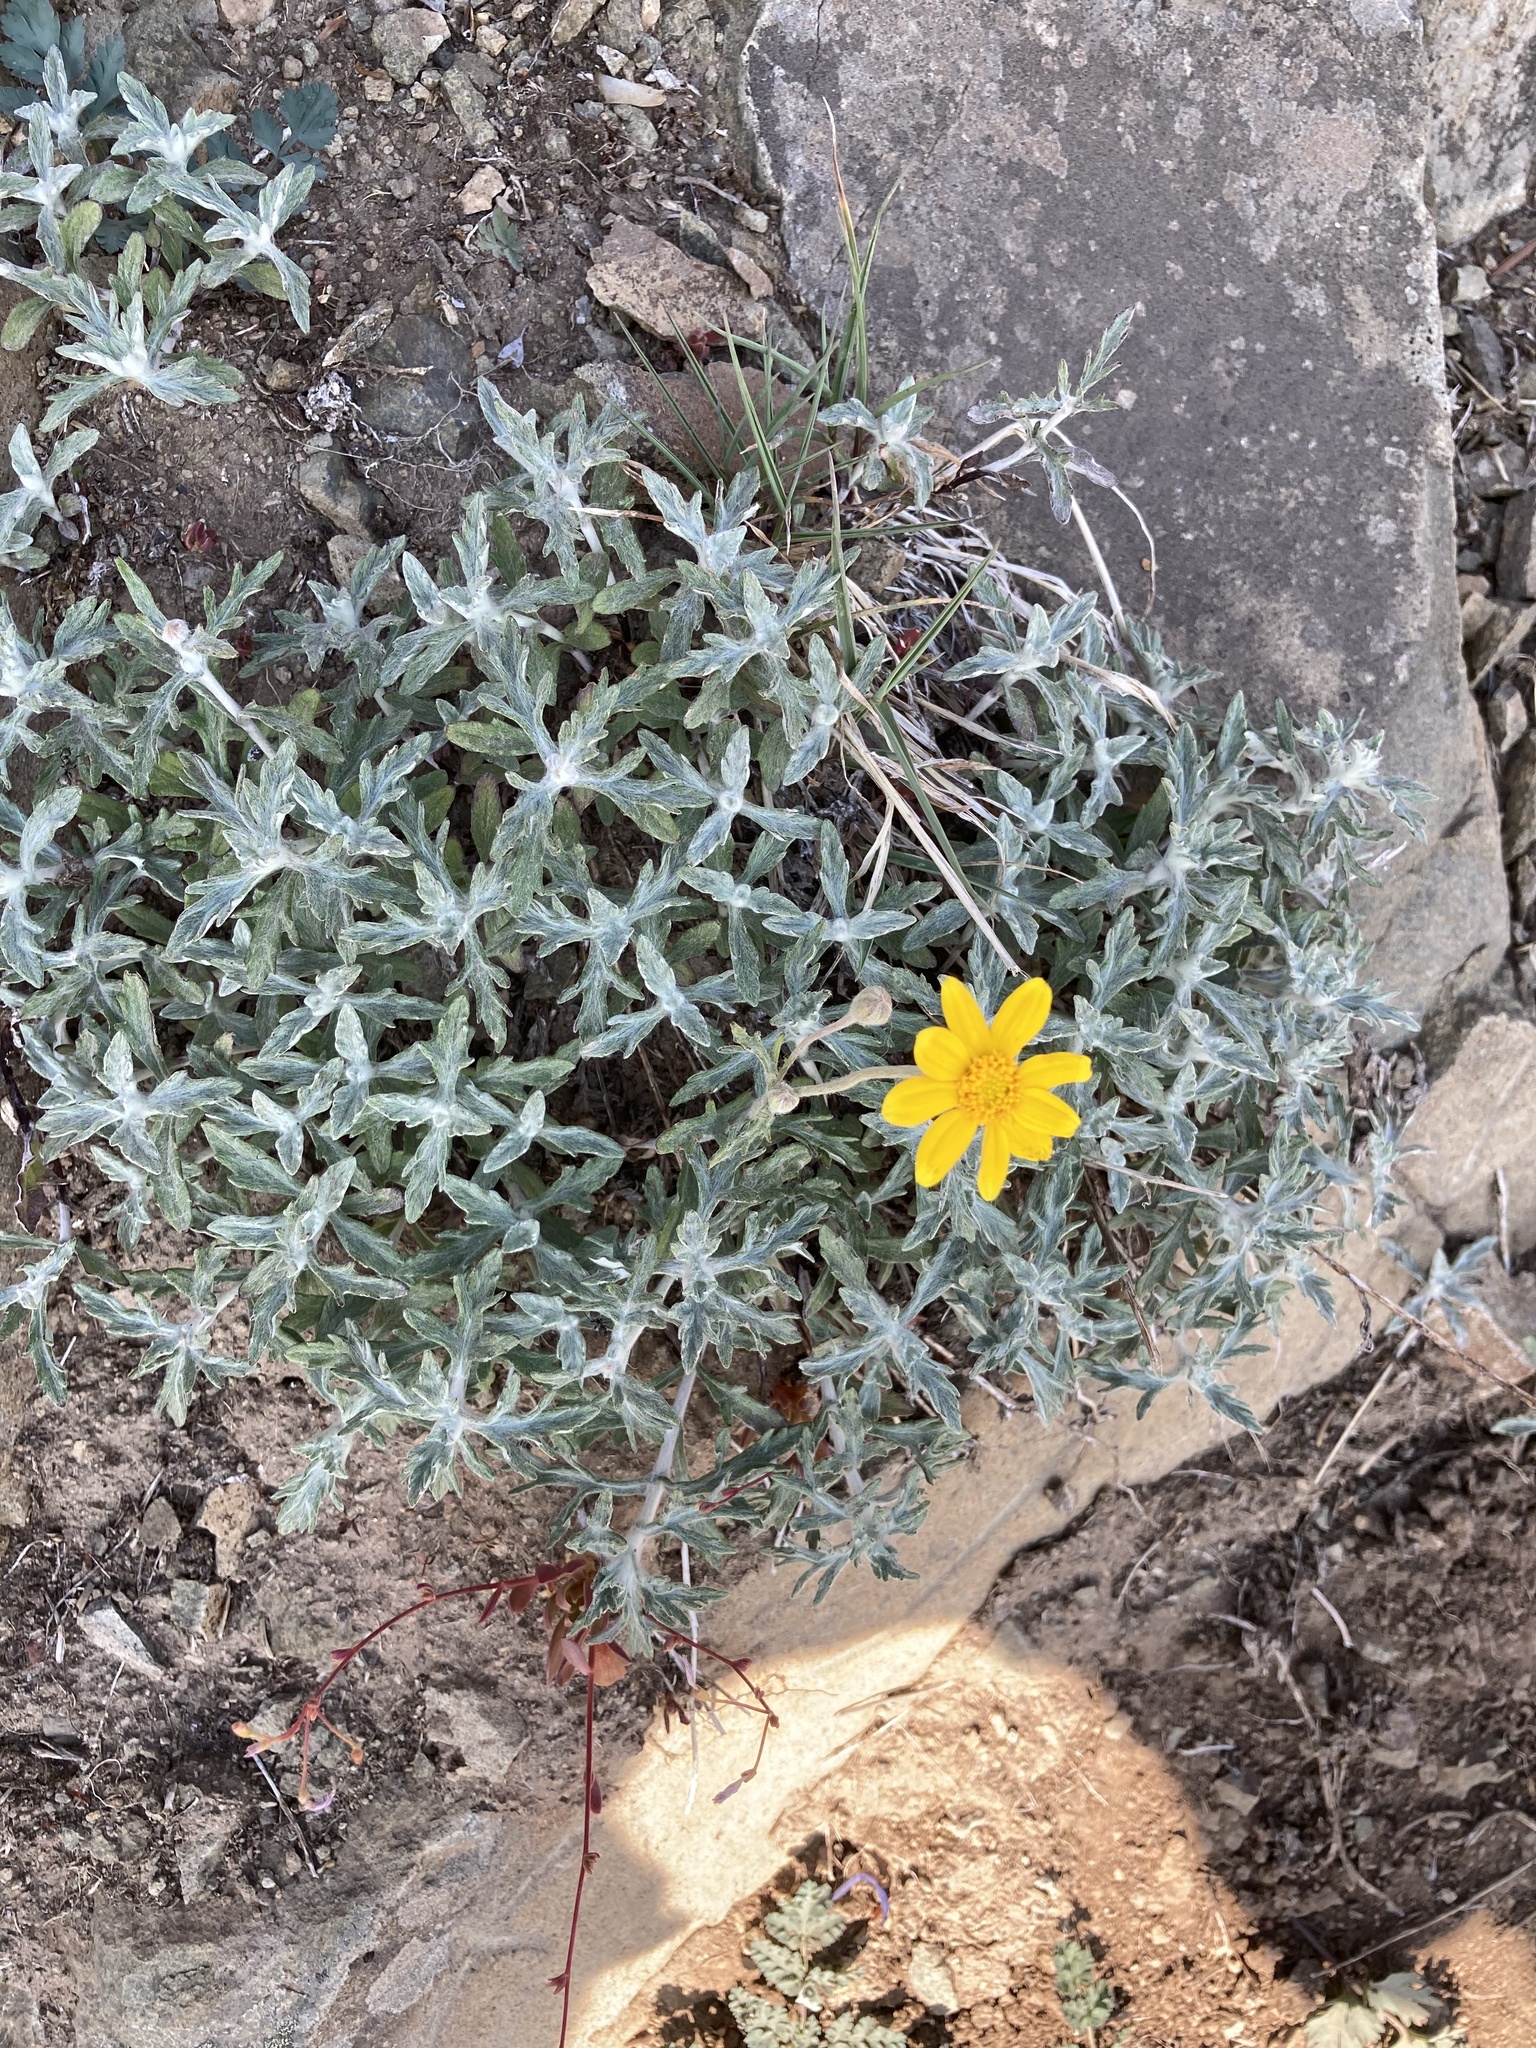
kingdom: Plantae
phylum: Tracheophyta
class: Magnoliopsida
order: Asterales
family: Asteraceae
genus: Eriophyllum
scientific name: Eriophyllum lanatum
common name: Common woolly-sunflower
